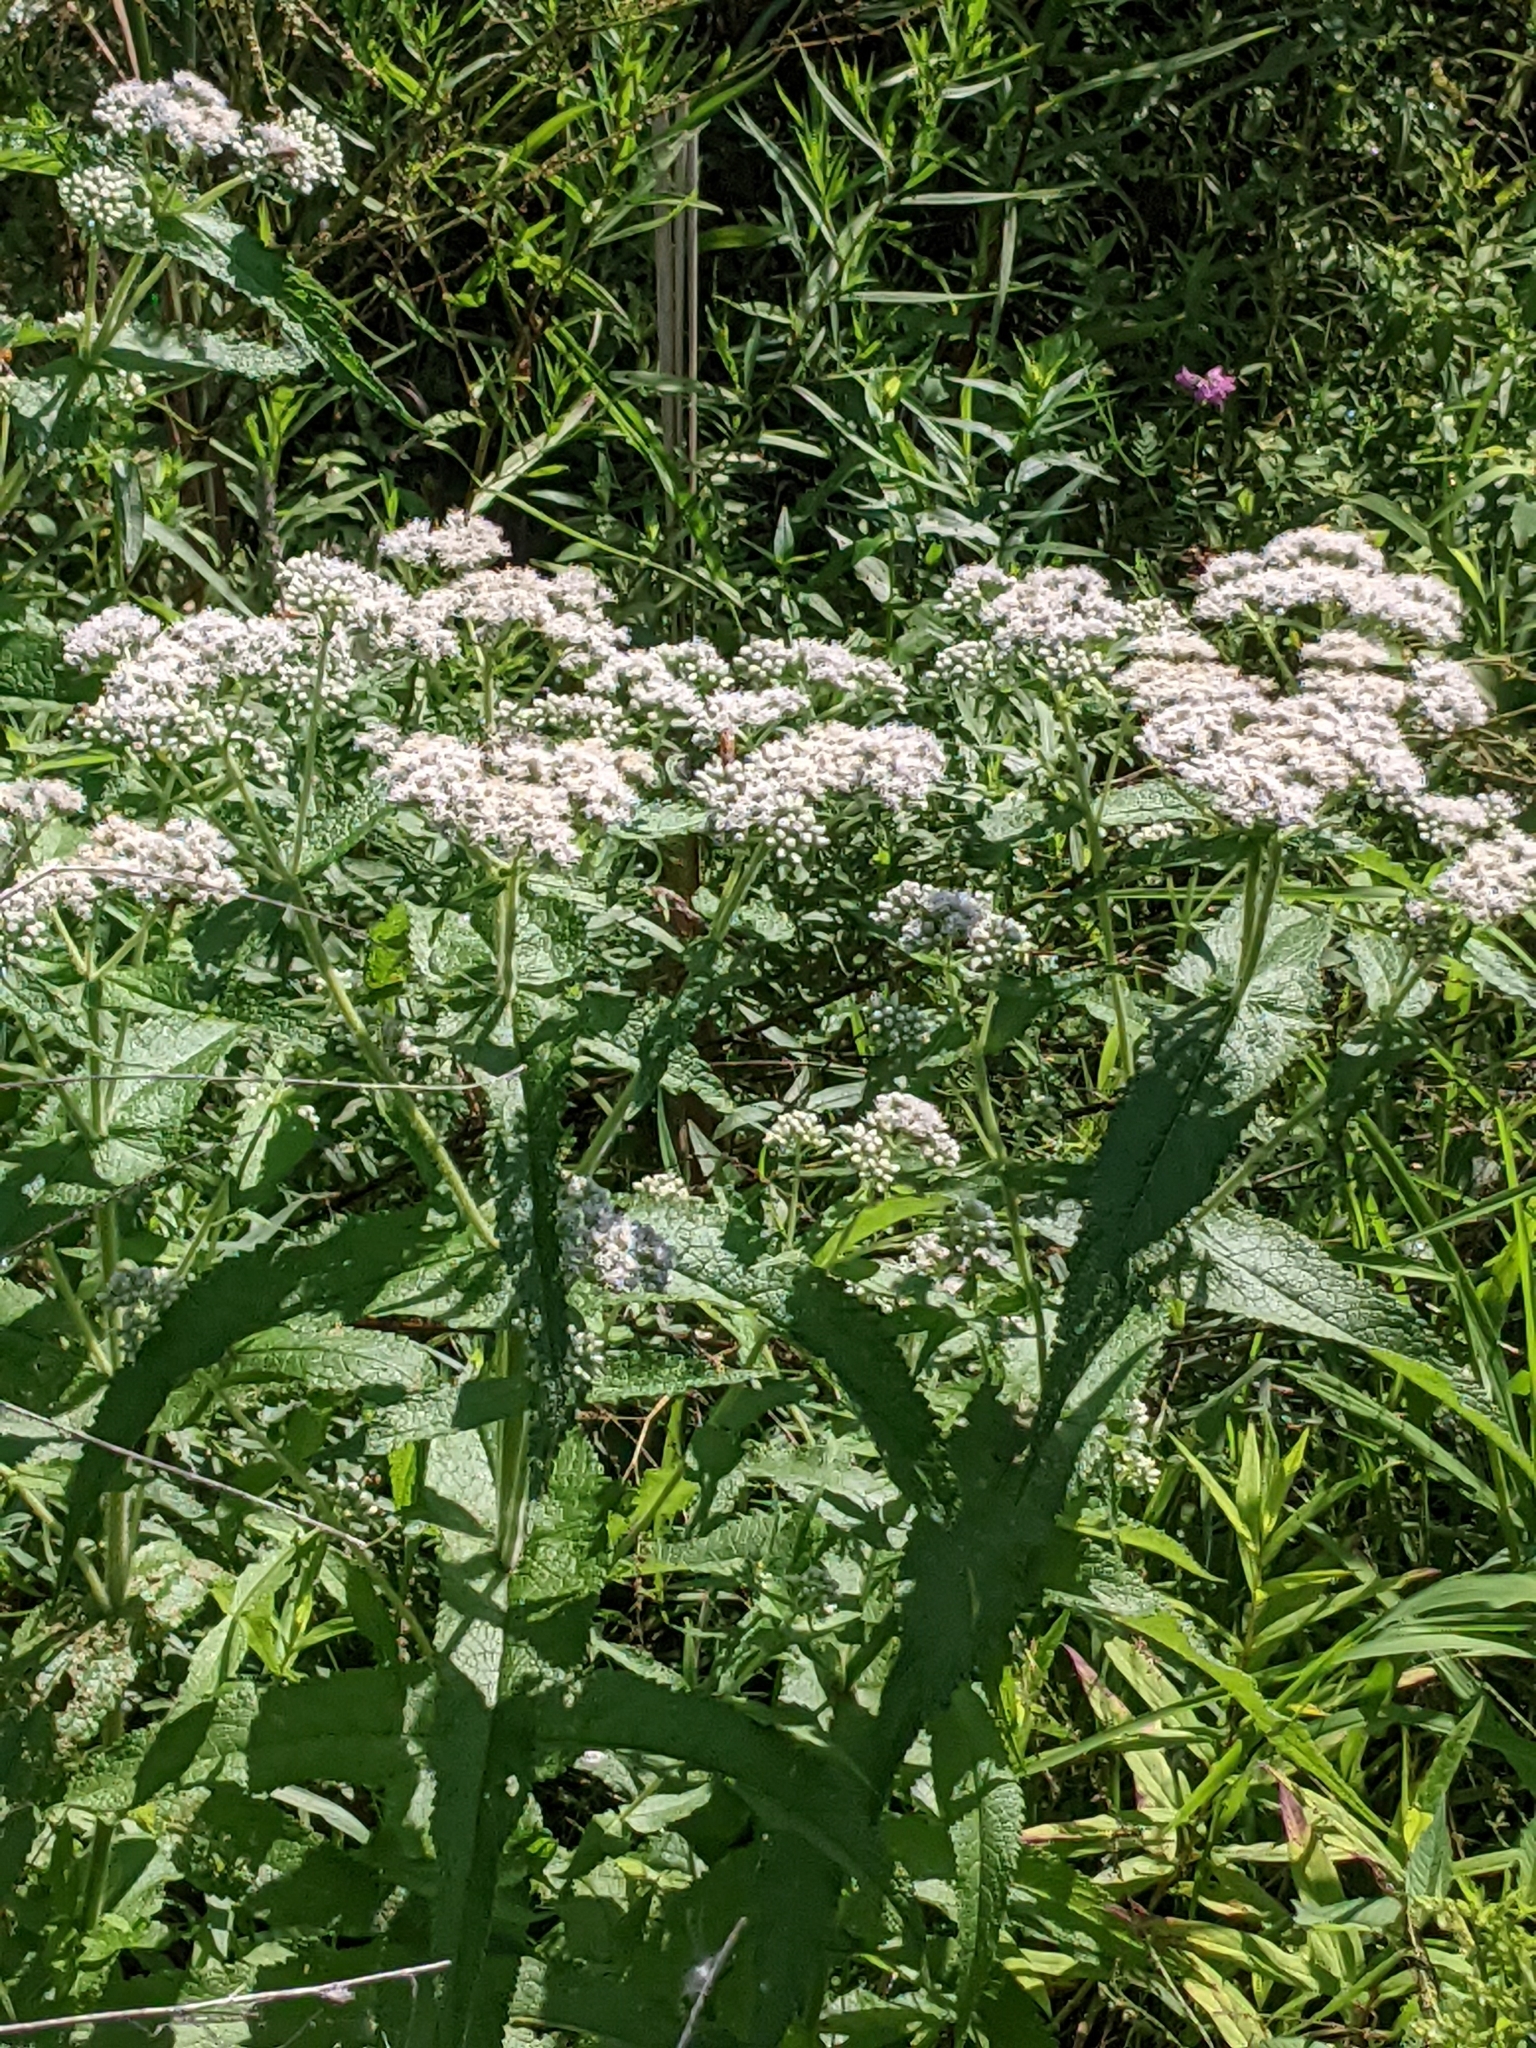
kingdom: Plantae
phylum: Tracheophyta
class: Magnoliopsida
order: Asterales
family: Asteraceae
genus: Eupatorium
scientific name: Eupatorium perfoliatum
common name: Boneset
